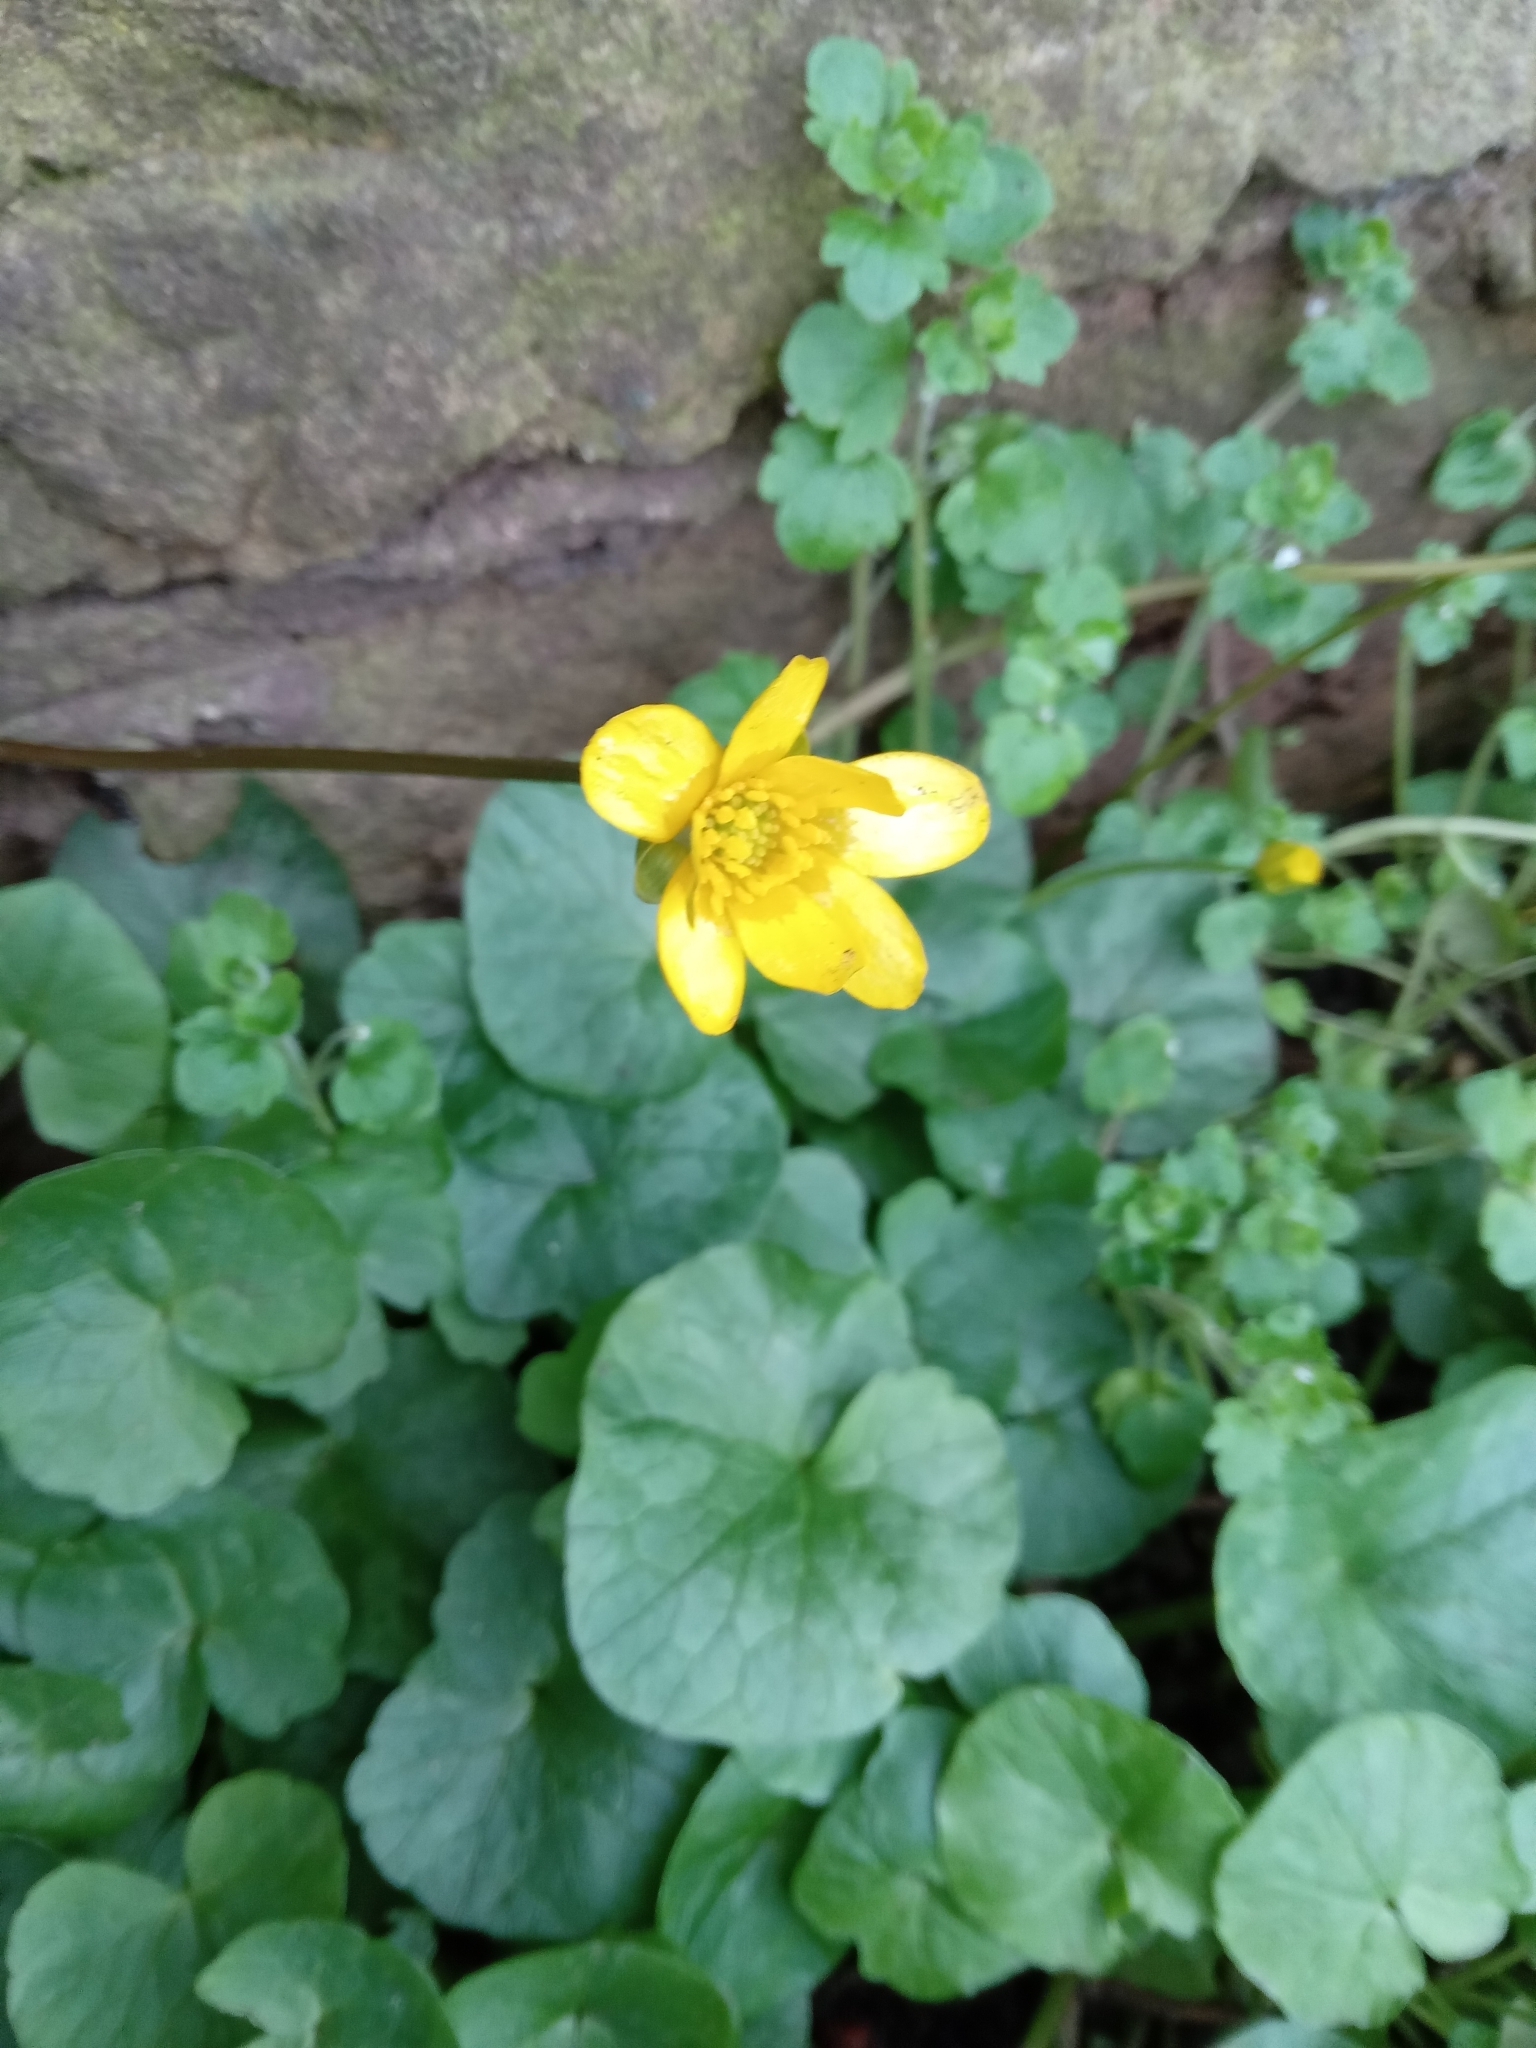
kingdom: Plantae
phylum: Tracheophyta
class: Magnoliopsida
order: Ranunculales
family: Ranunculaceae
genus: Ficaria
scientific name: Ficaria verna
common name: Lesser celandine
